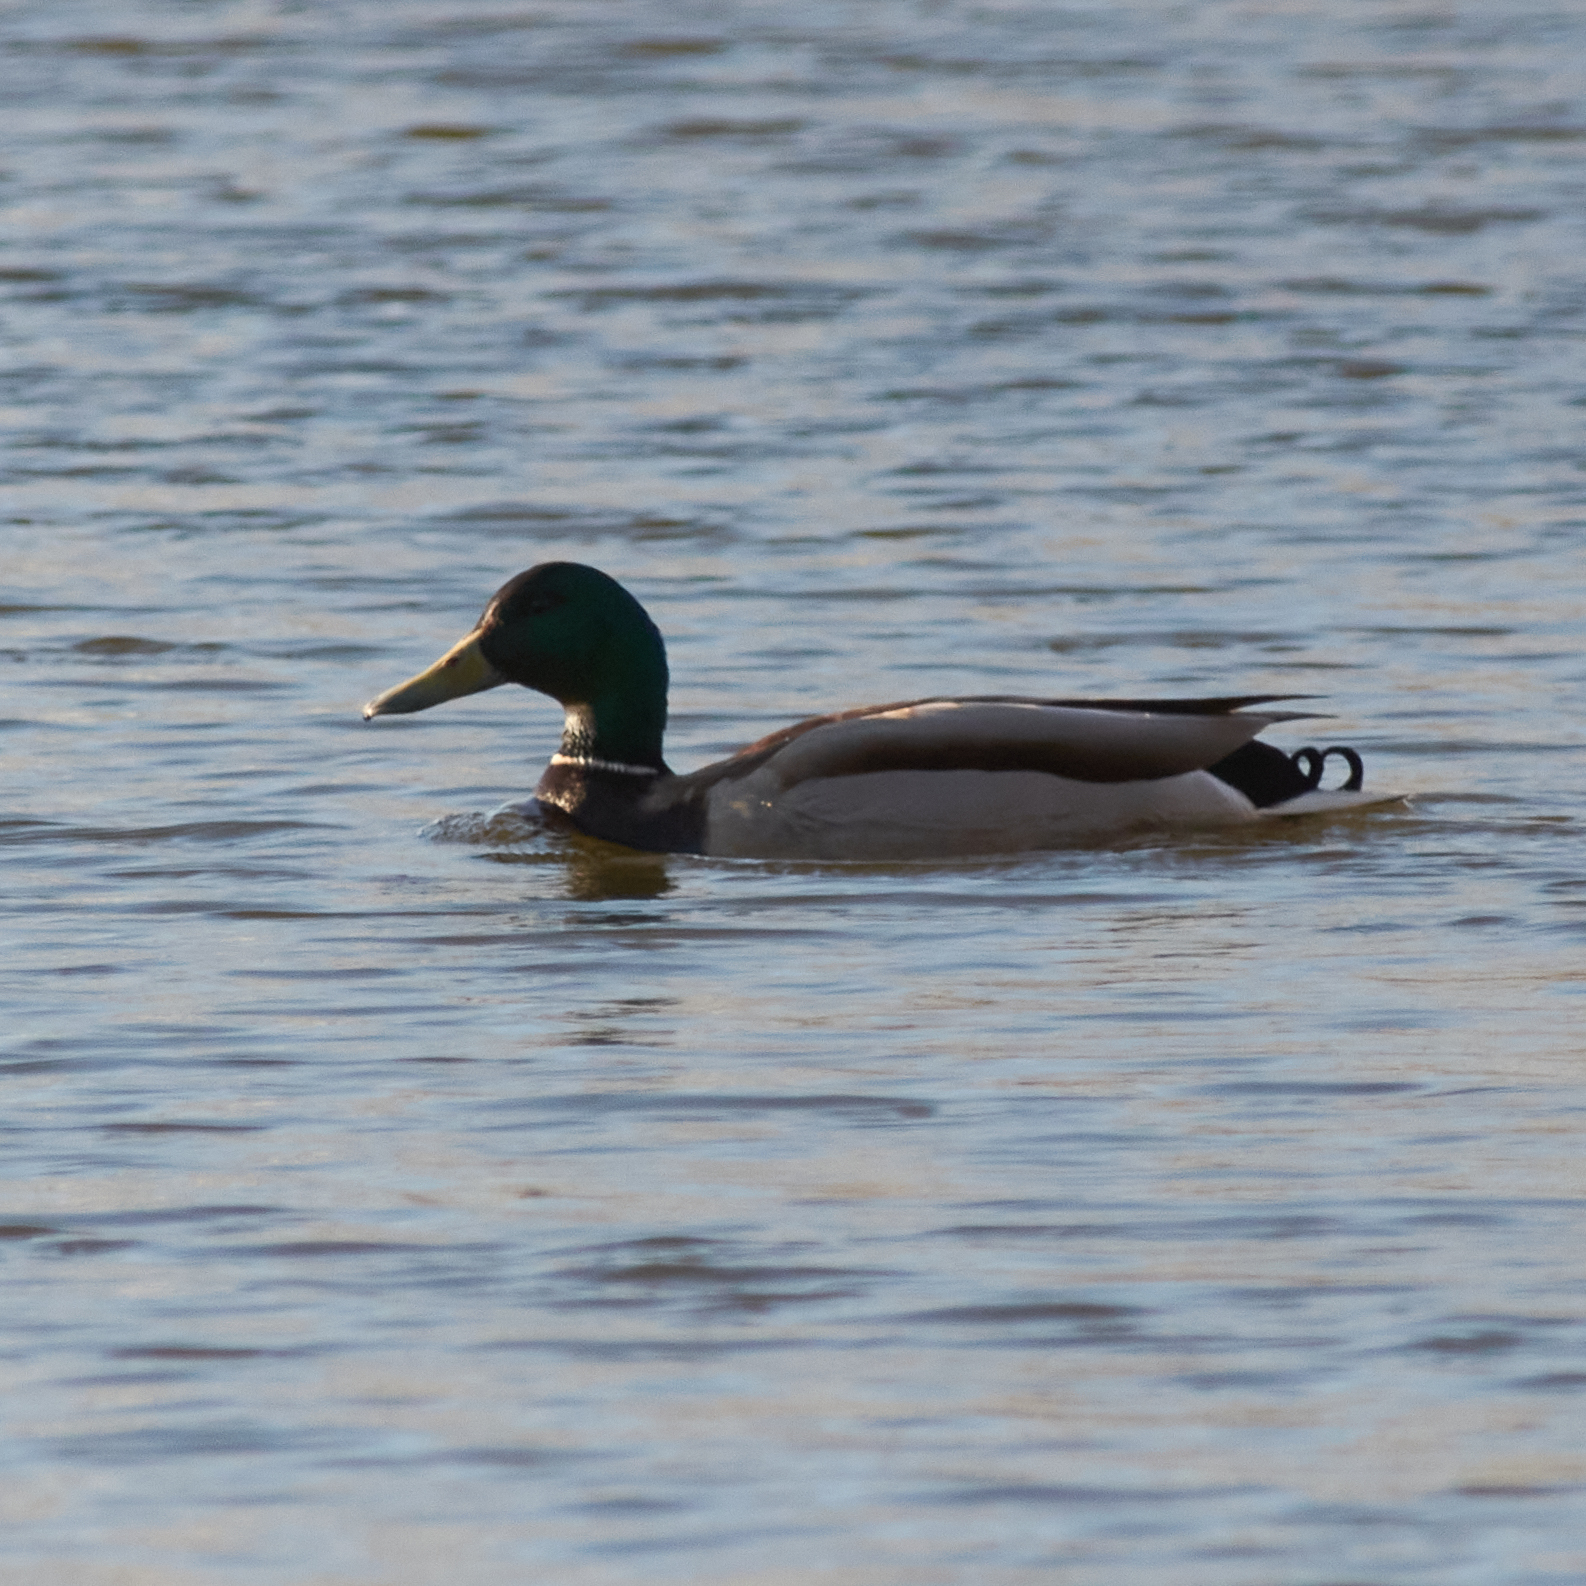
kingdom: Animalia
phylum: Chordata
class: Aves
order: Anseriformes
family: Anatidae
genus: Anas
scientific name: Anas platyrhynchos
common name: Mallard
